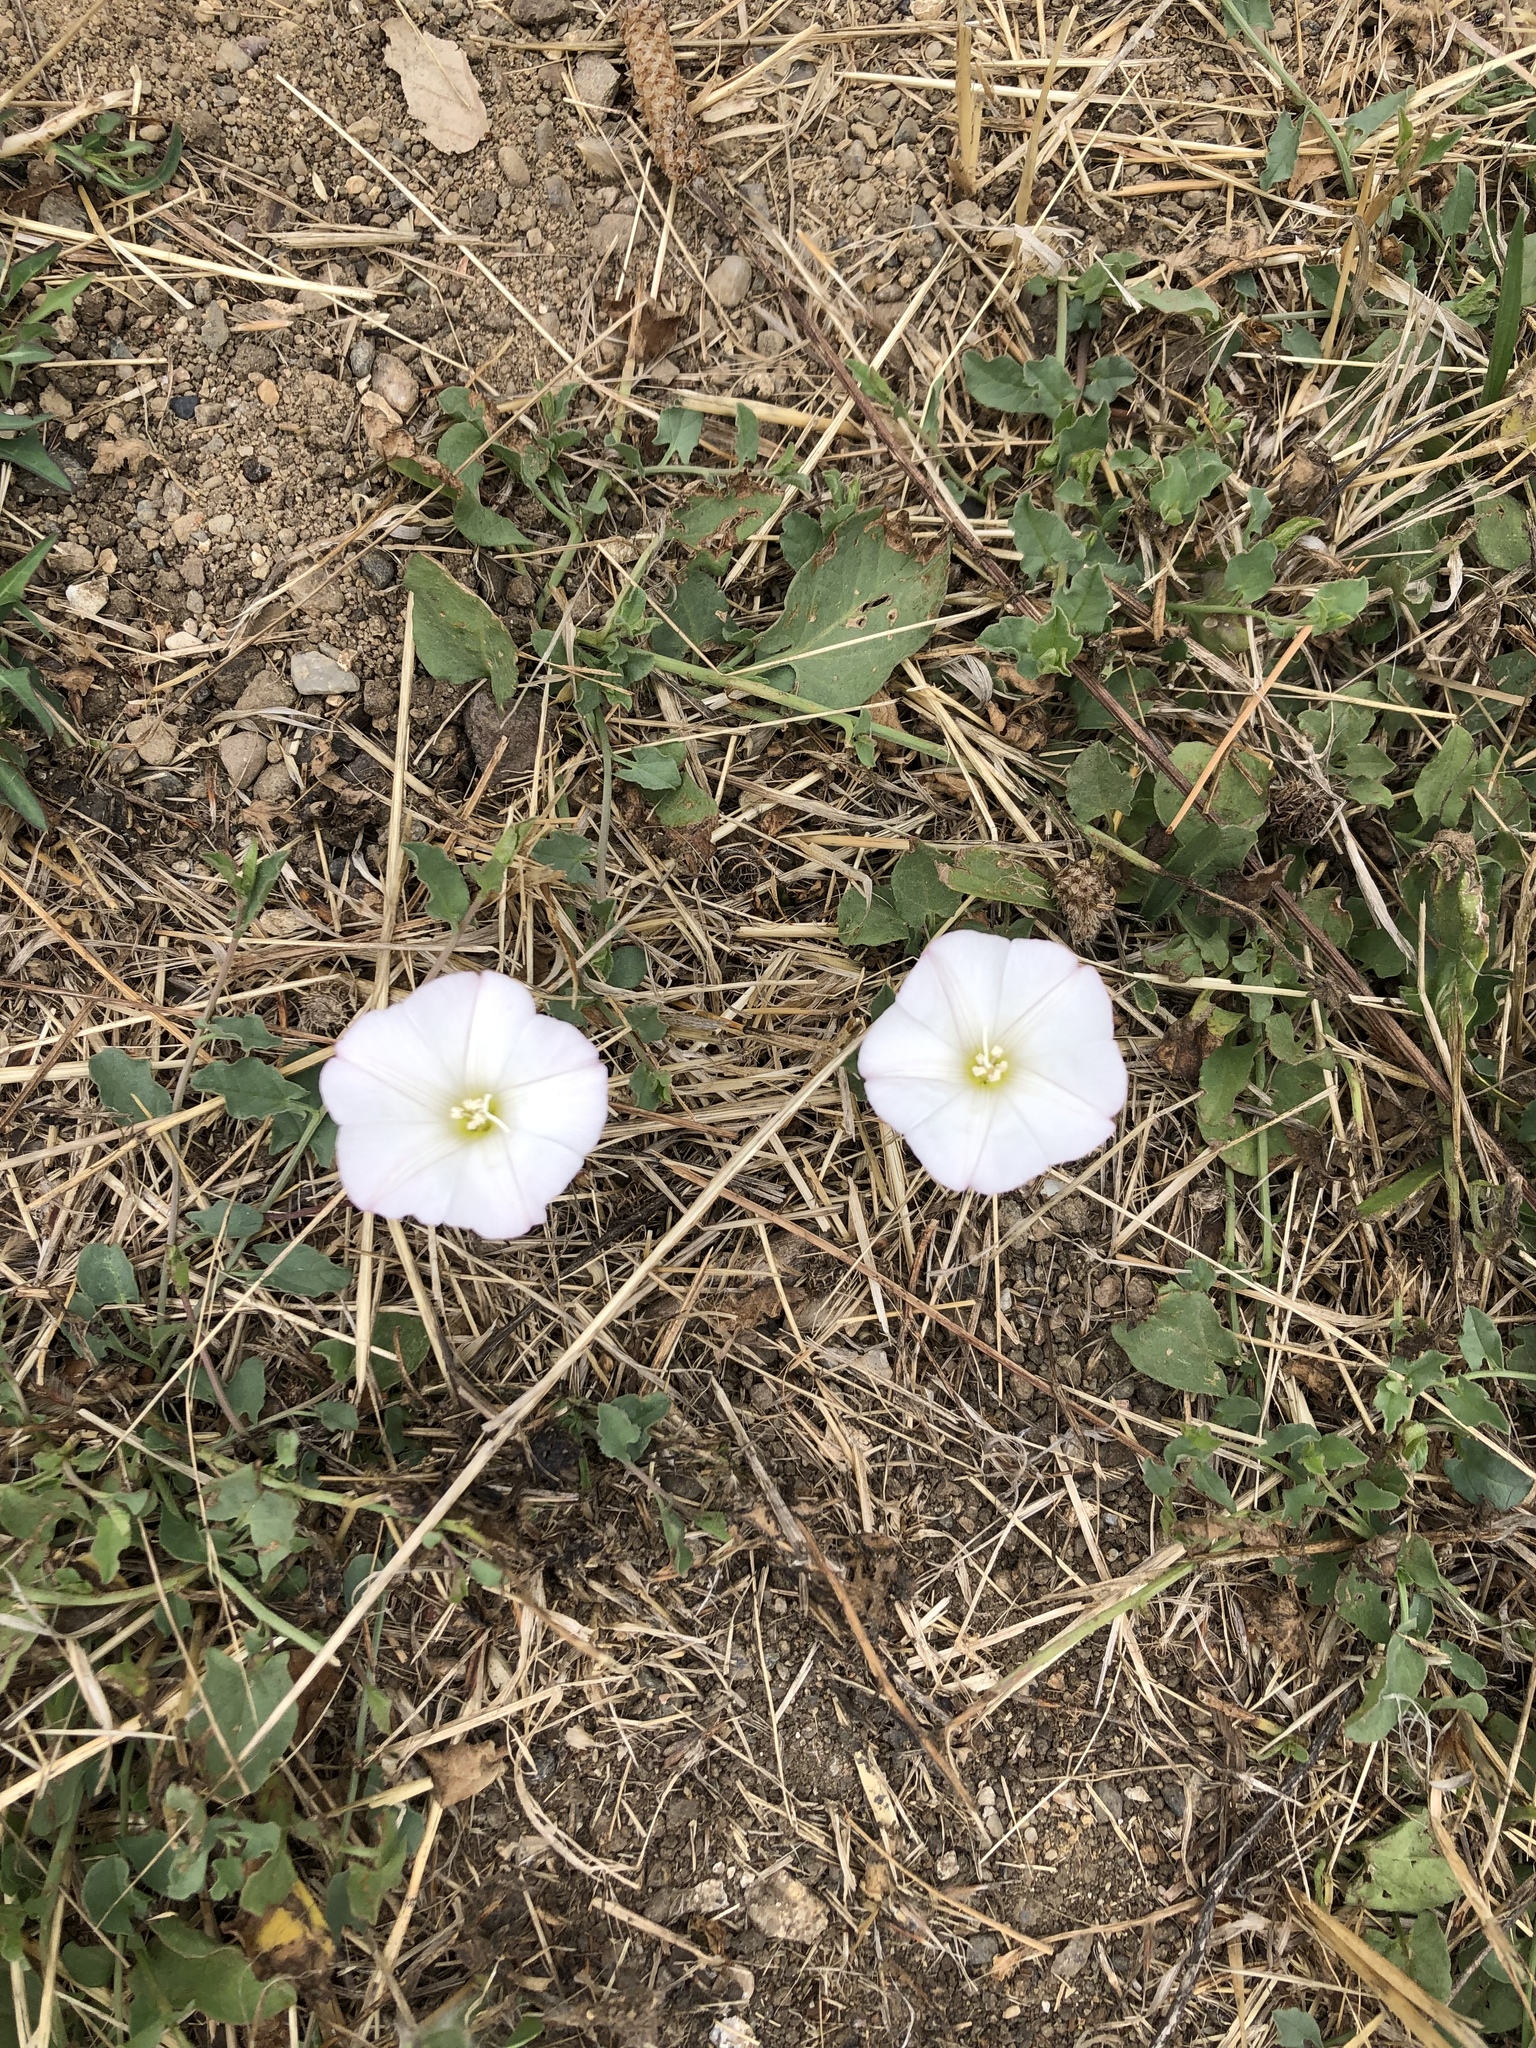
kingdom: Plantae
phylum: Tracheophyta
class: Magnoliopsida
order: Solanales
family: Convolvulaceae
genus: Convolvulus
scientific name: Convolvulus arvensis
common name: Field bindweed
